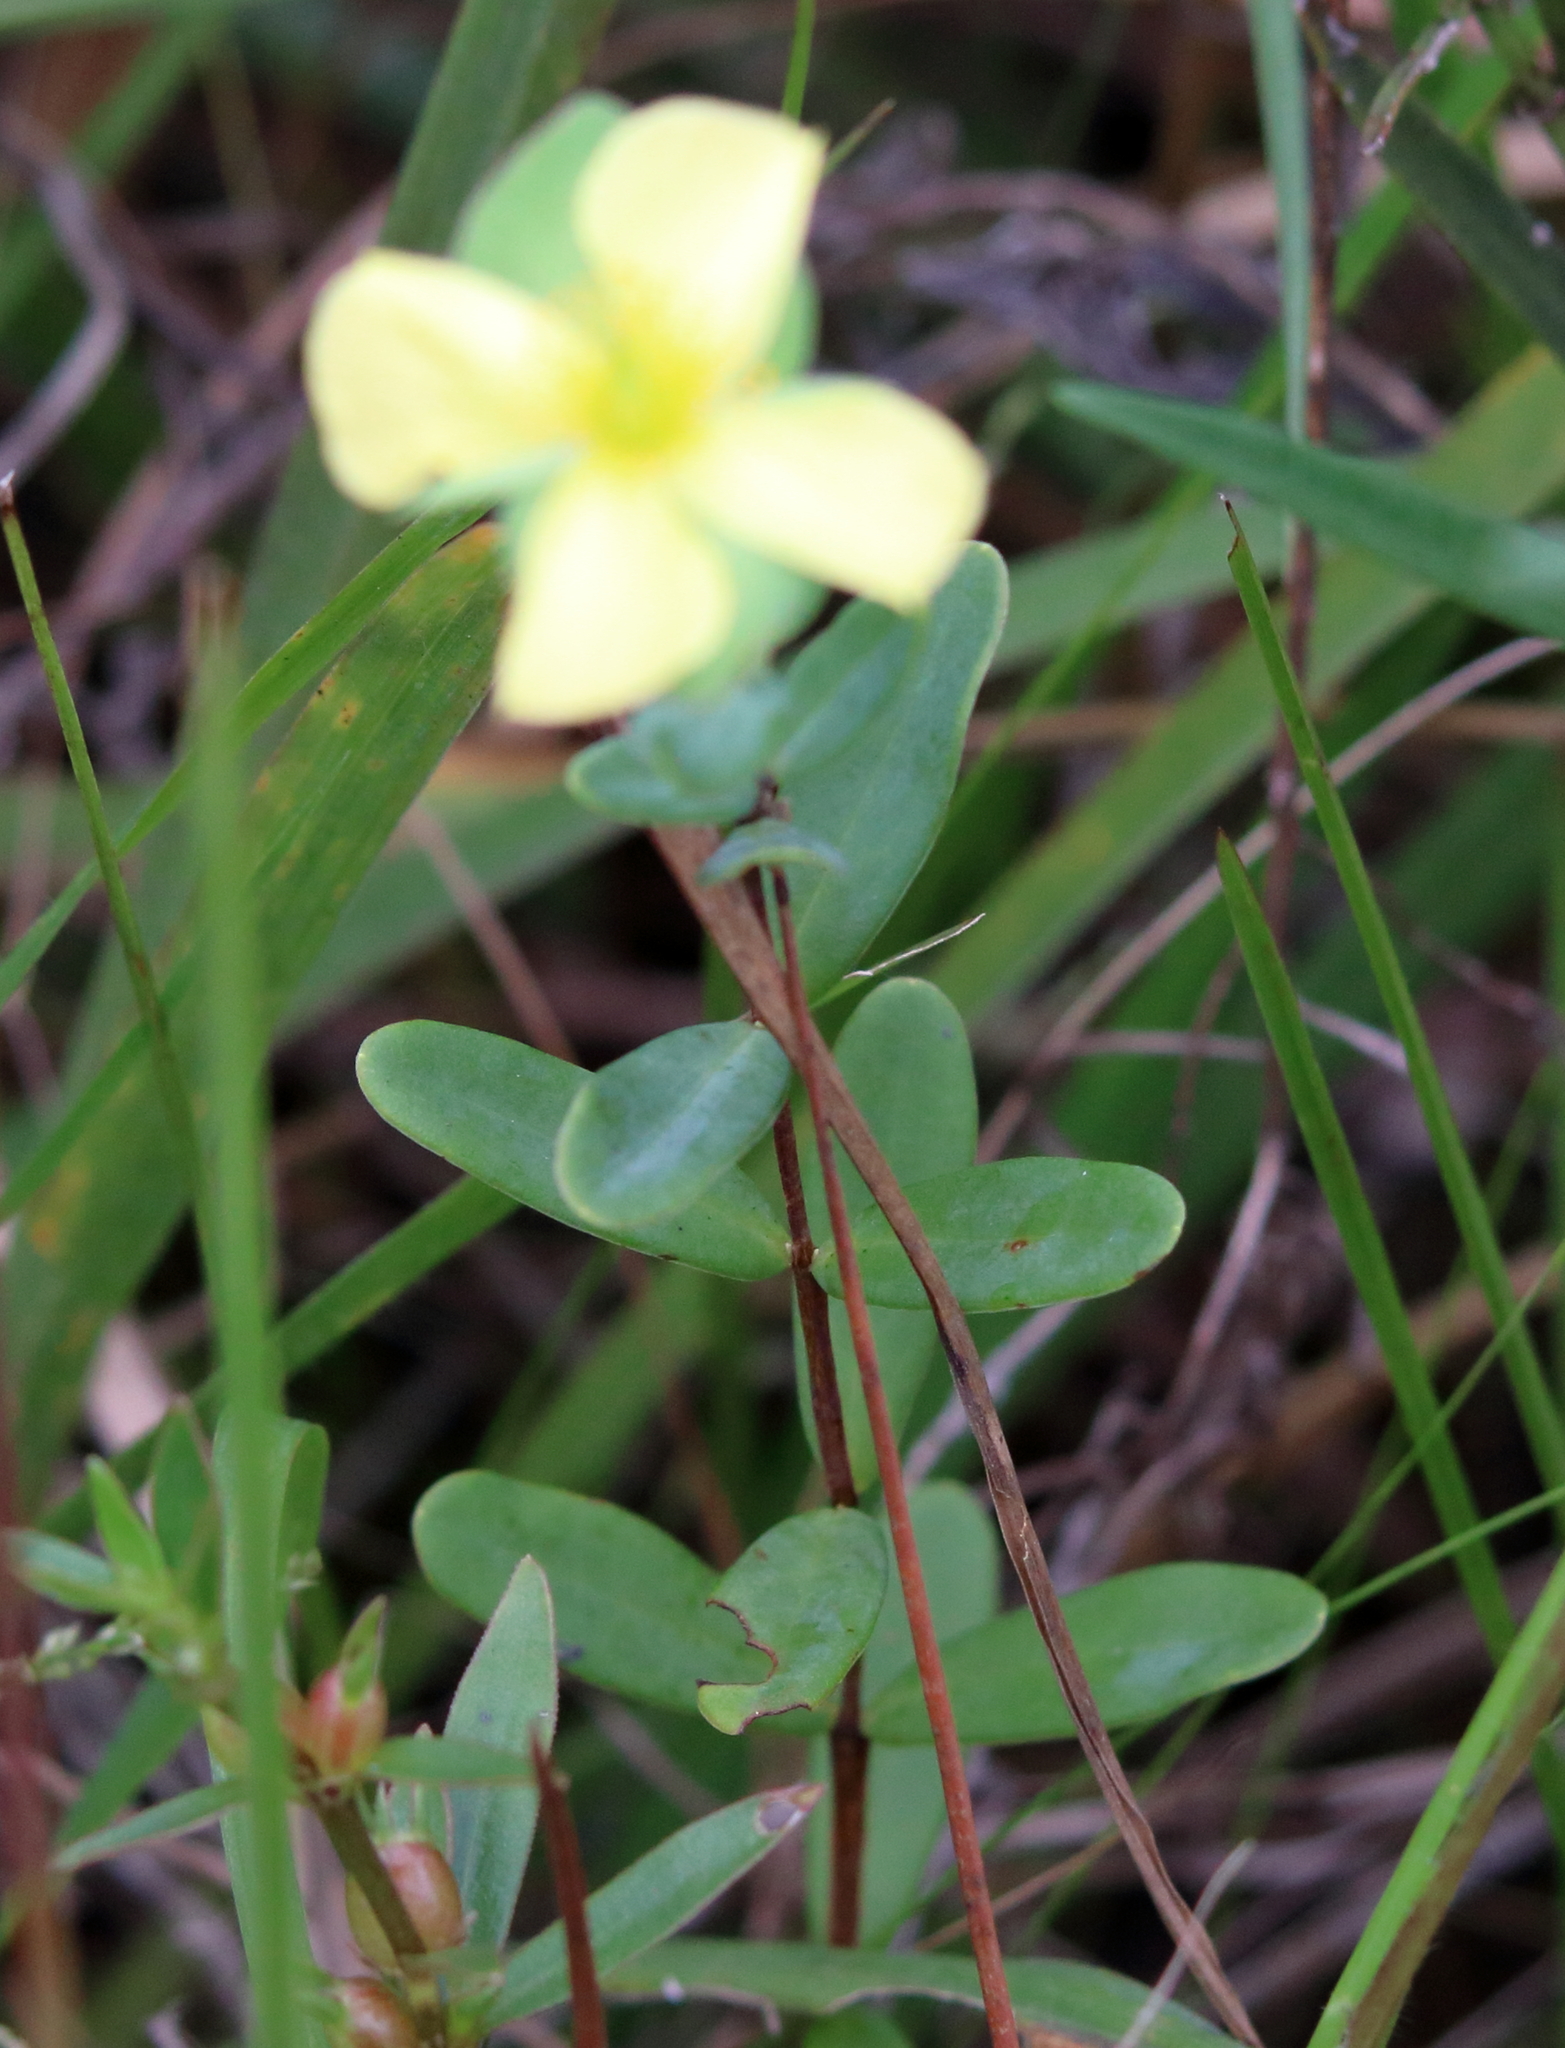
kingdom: Plantae
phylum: Tracheophyta
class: Magnoliopsida
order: Malpighiales
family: Hypericaceae
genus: Hypericum
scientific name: Hypericum crux-andreae
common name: St.-peter's-wort
